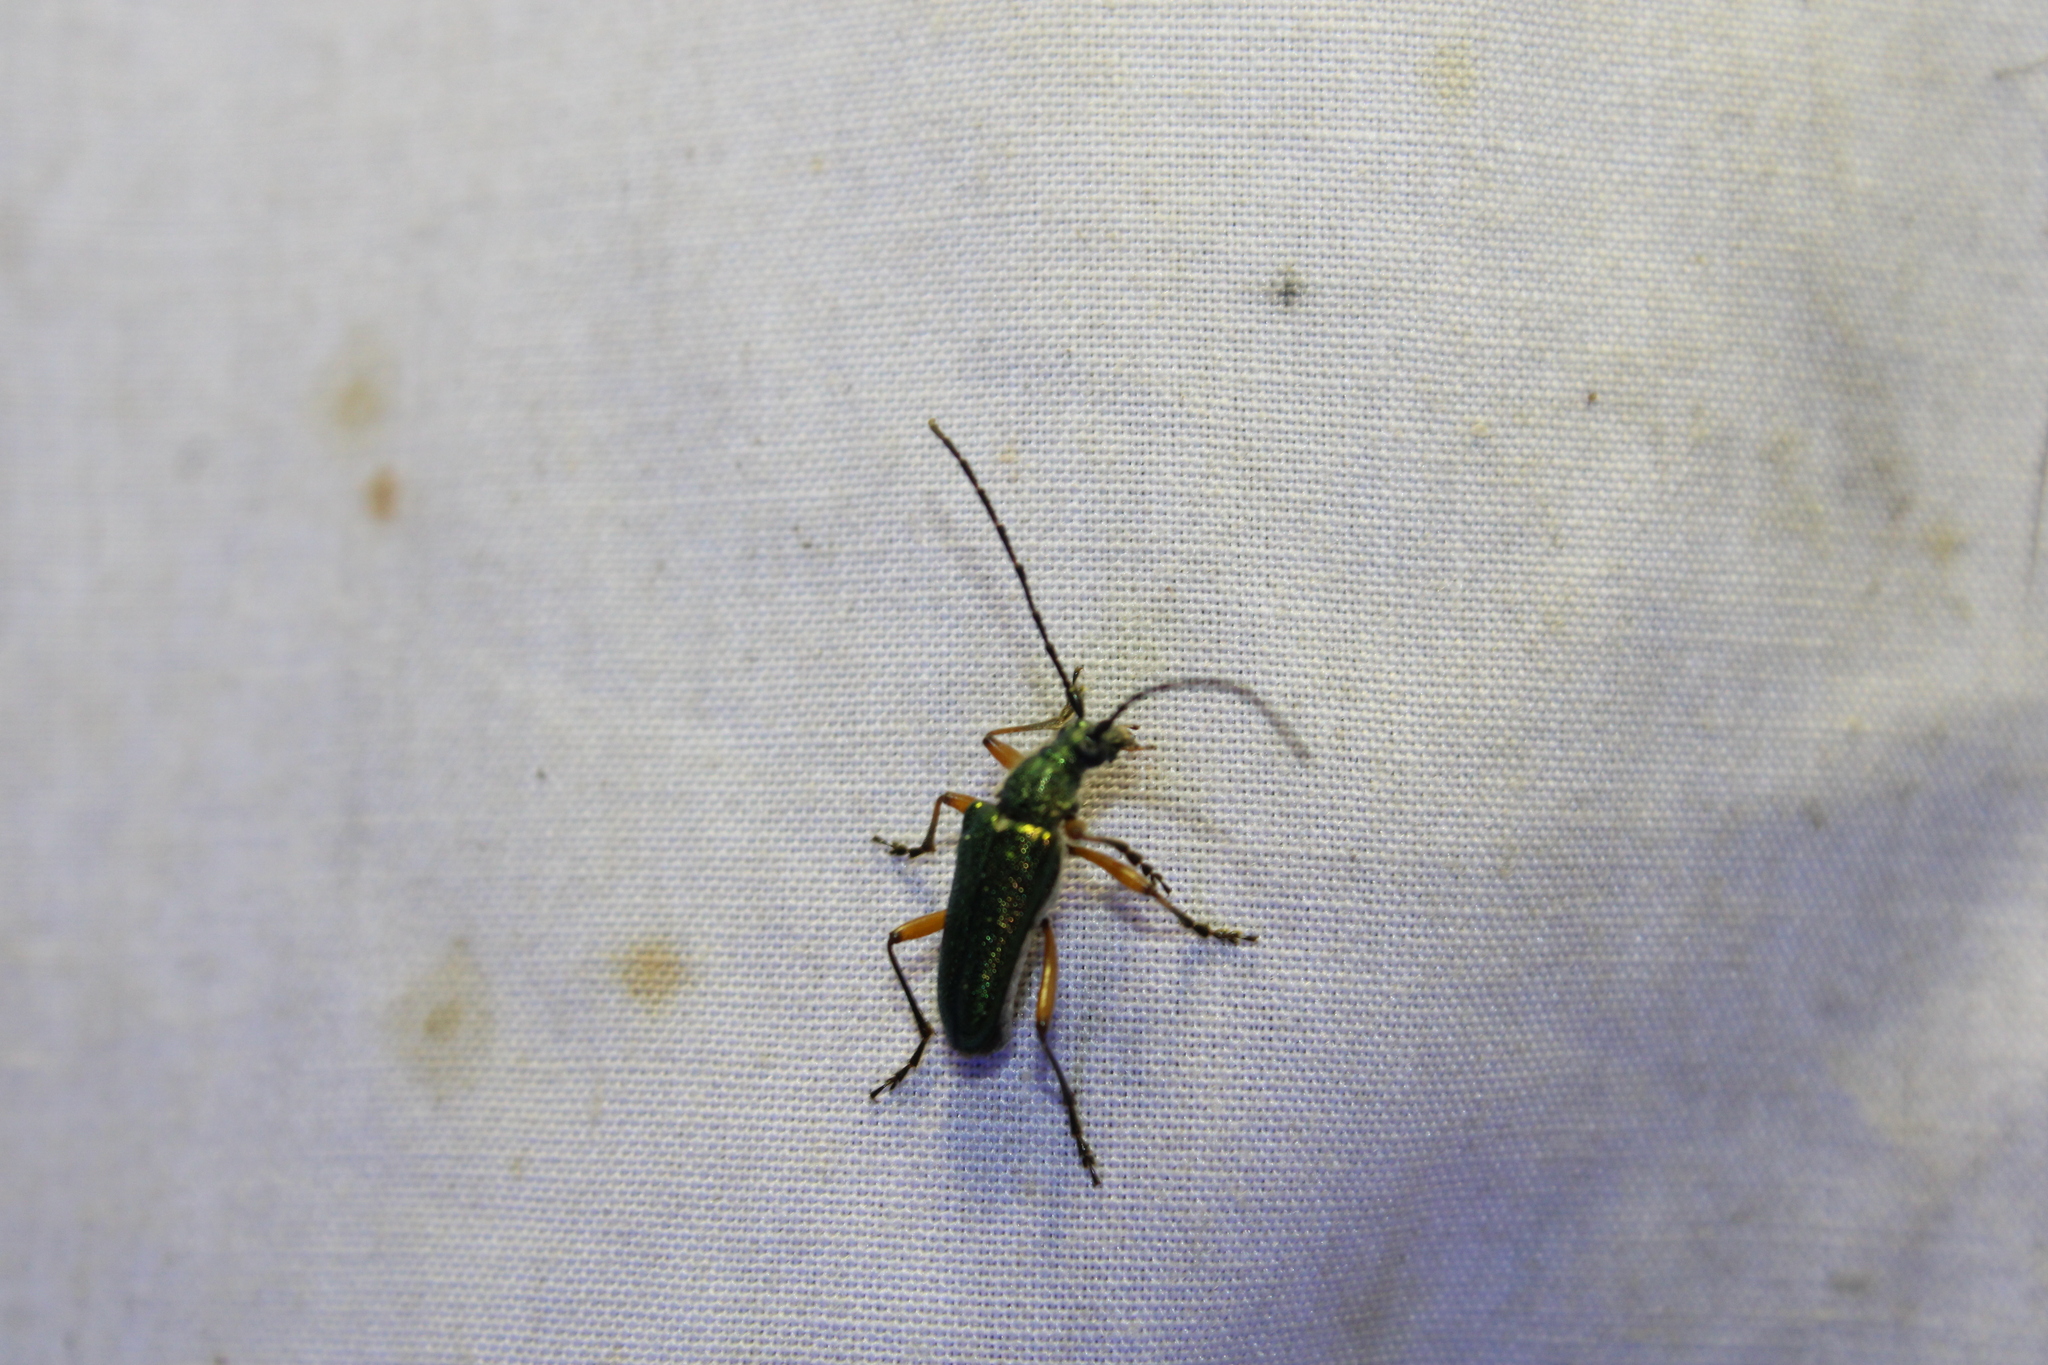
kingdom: Animalia
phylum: Arthropoda
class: Insecta
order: Coleoptera
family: Cerambycidae
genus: Anthophylax
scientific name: Anthophylax cyaneus
